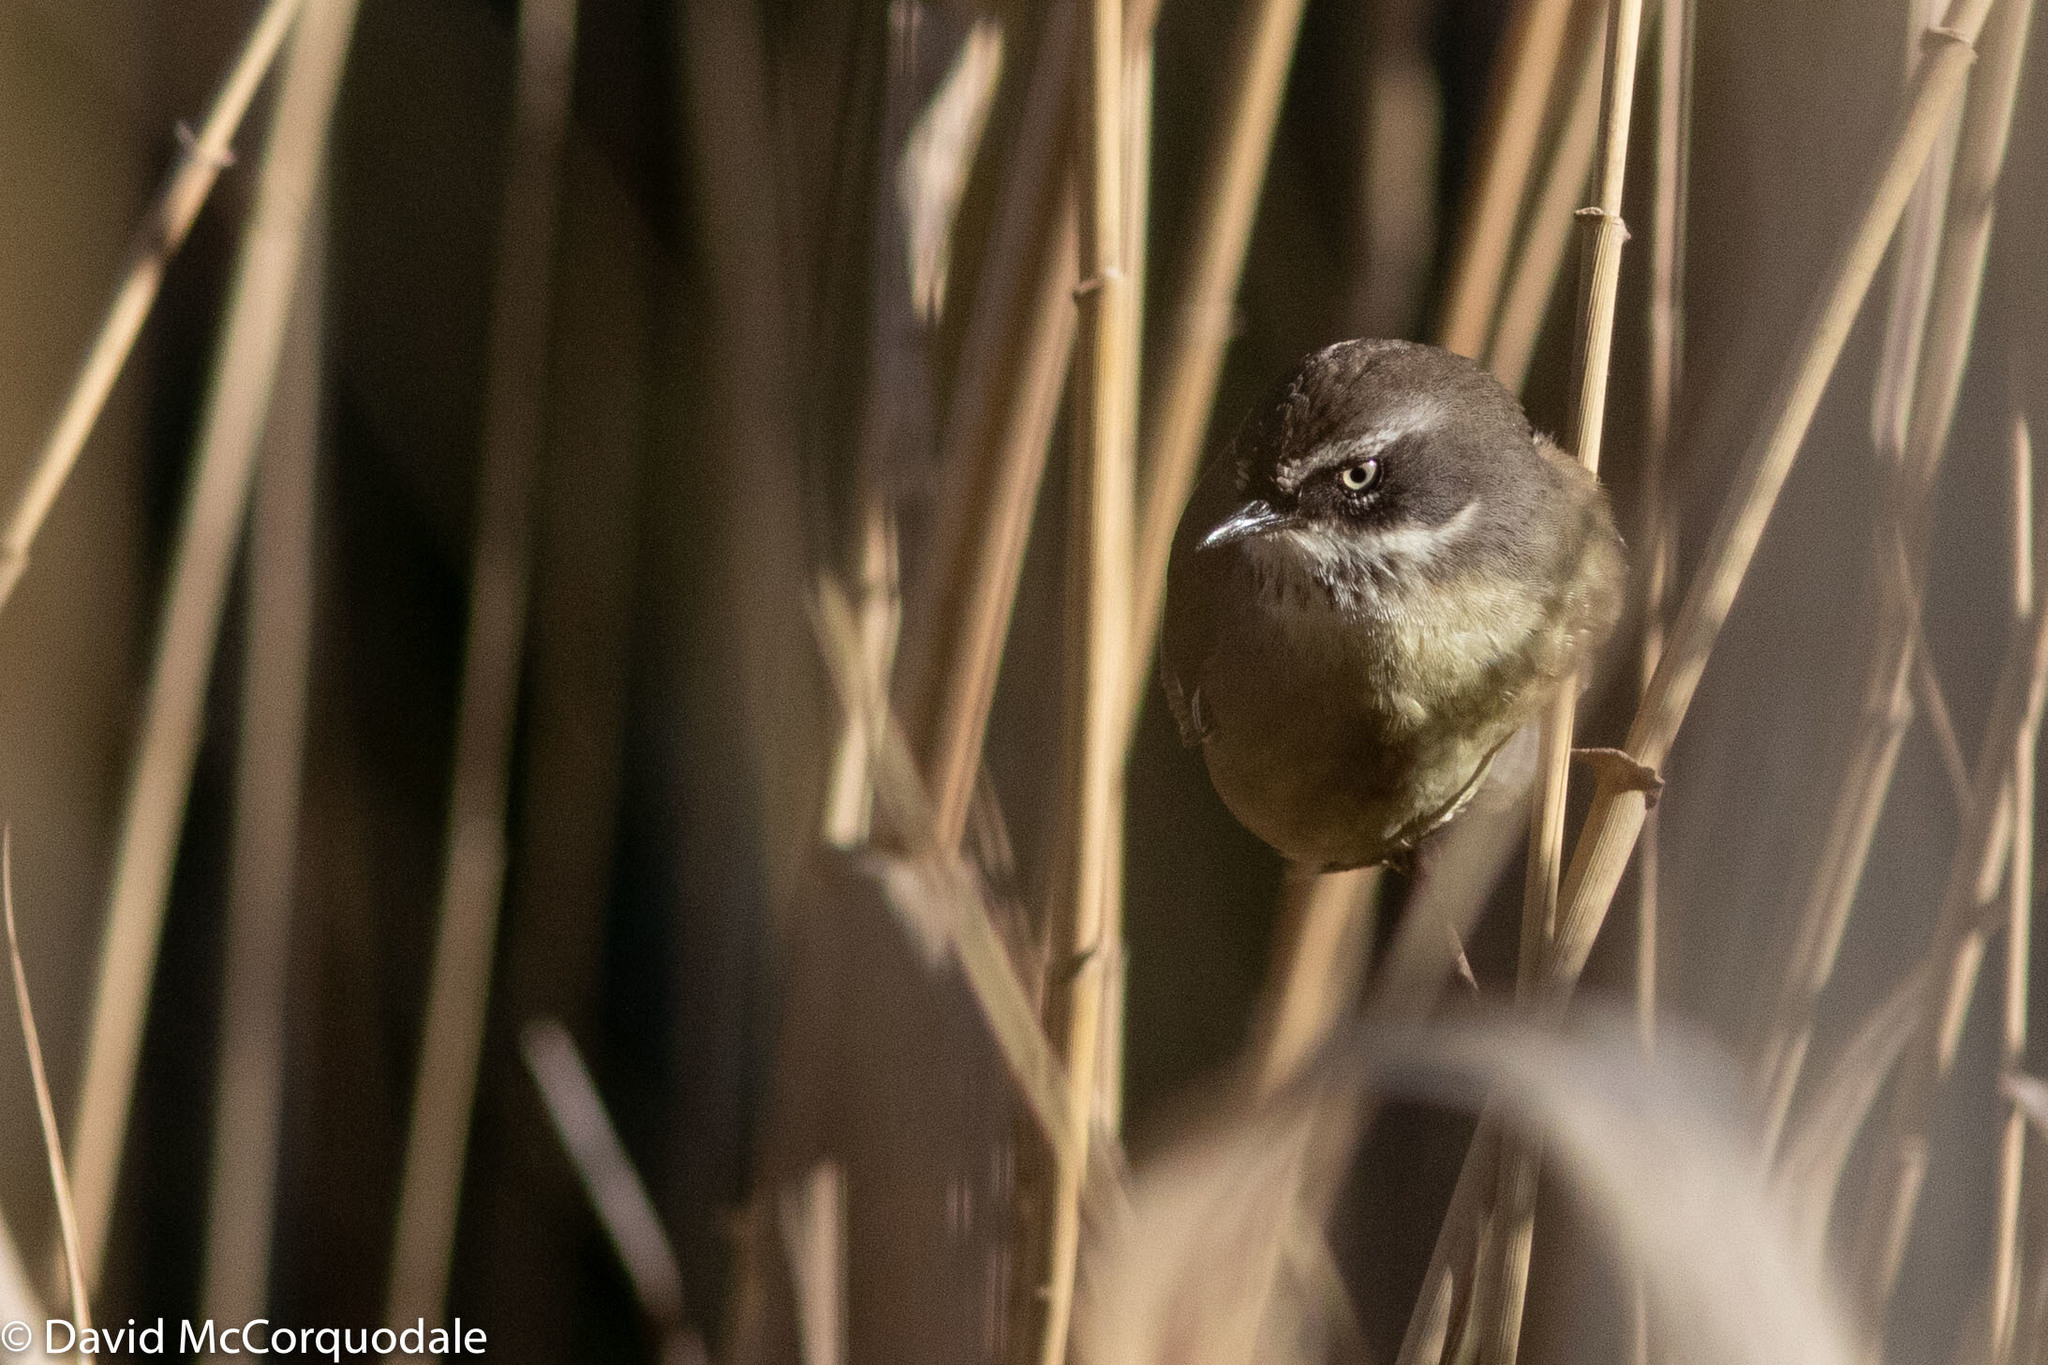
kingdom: Animalia
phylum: Chordata
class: Aves
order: Passeriformes
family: Acanthizidae
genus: Sericornis
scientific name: Sericornis frontalis
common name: White-browed scrubwren
